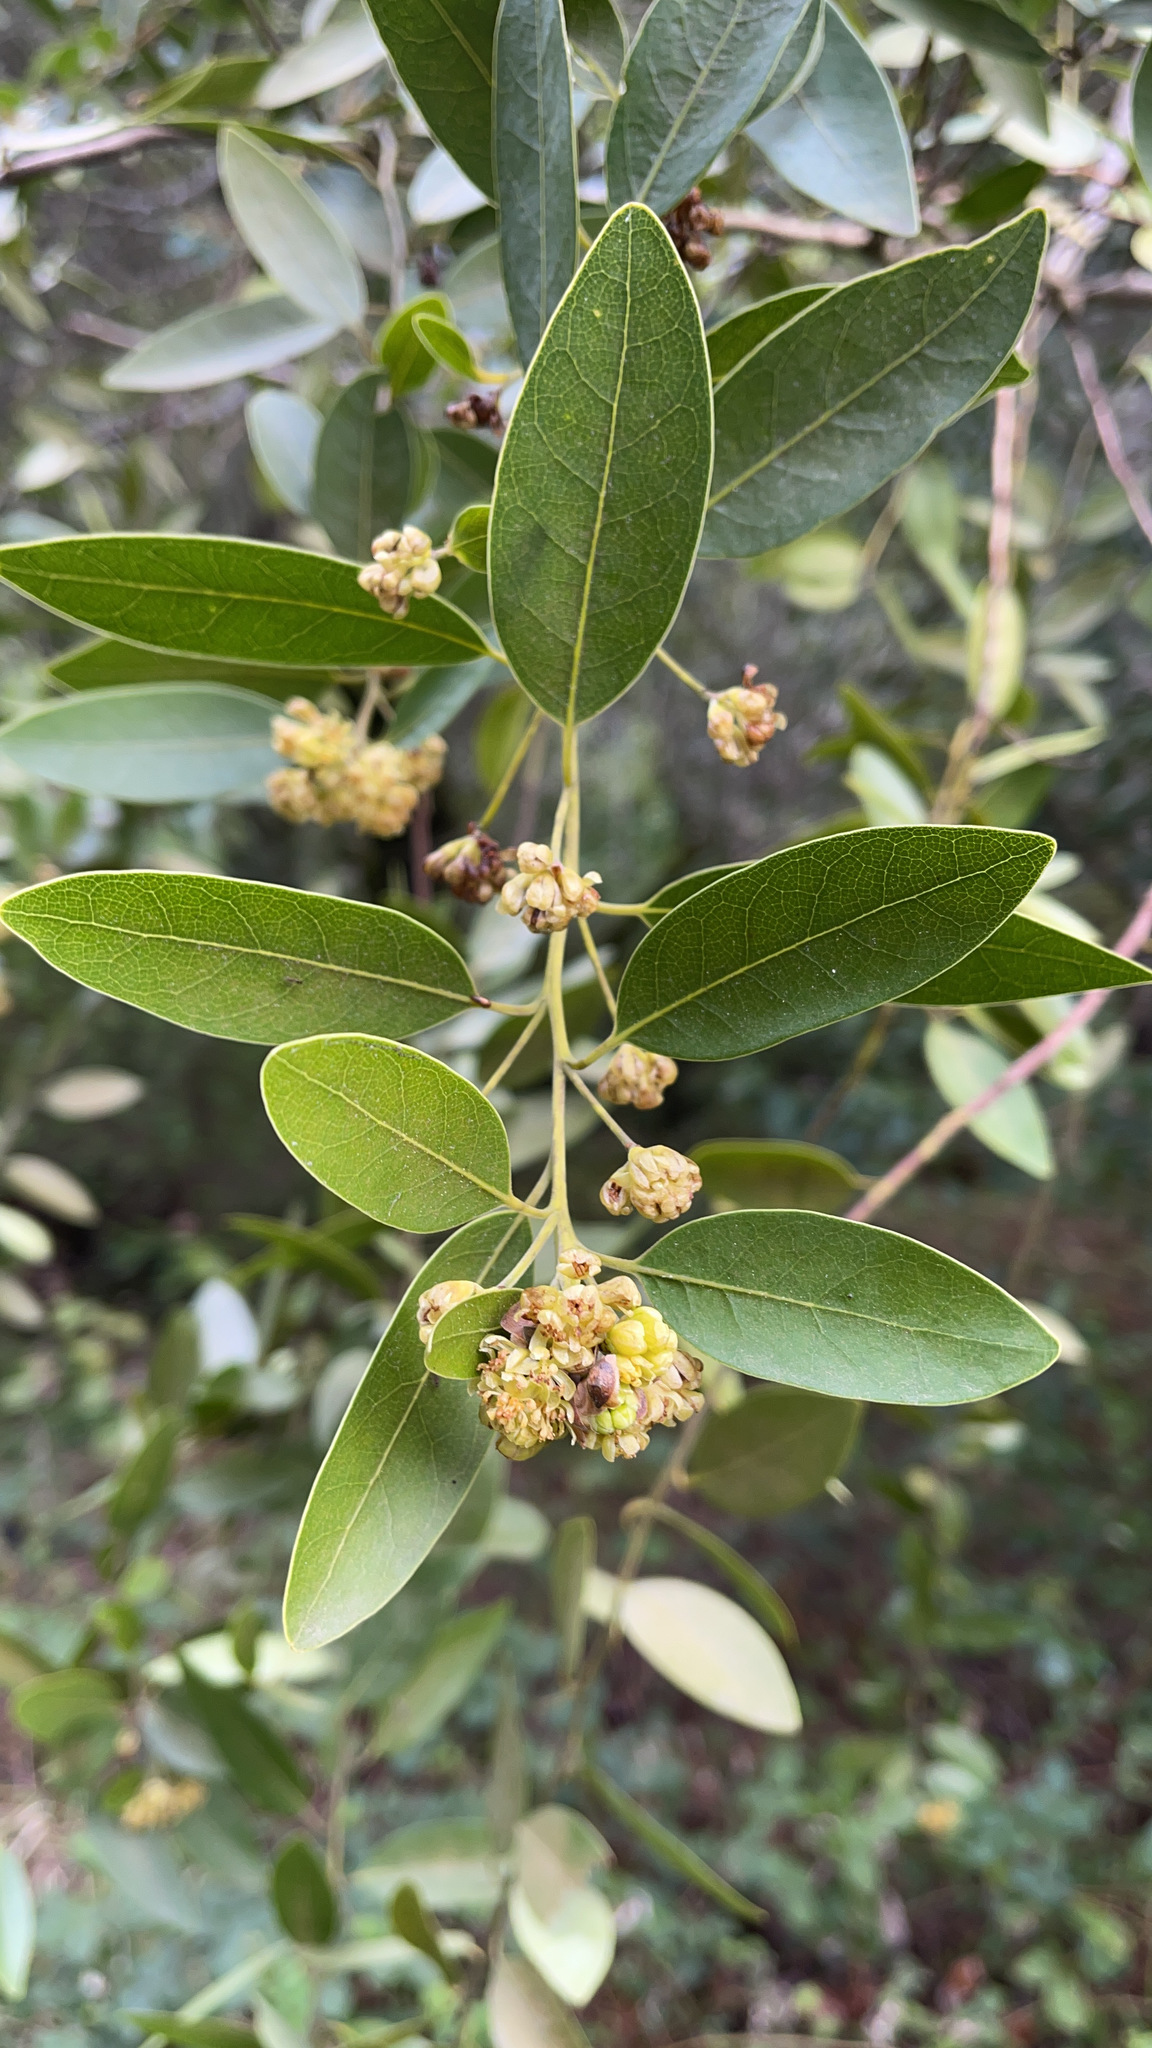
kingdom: Plantae
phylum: Tracheophyta
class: Magnoliopsida
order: Laurales
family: Lauraceae
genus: Umbellularia
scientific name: Umbellularia californica
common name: California bay
